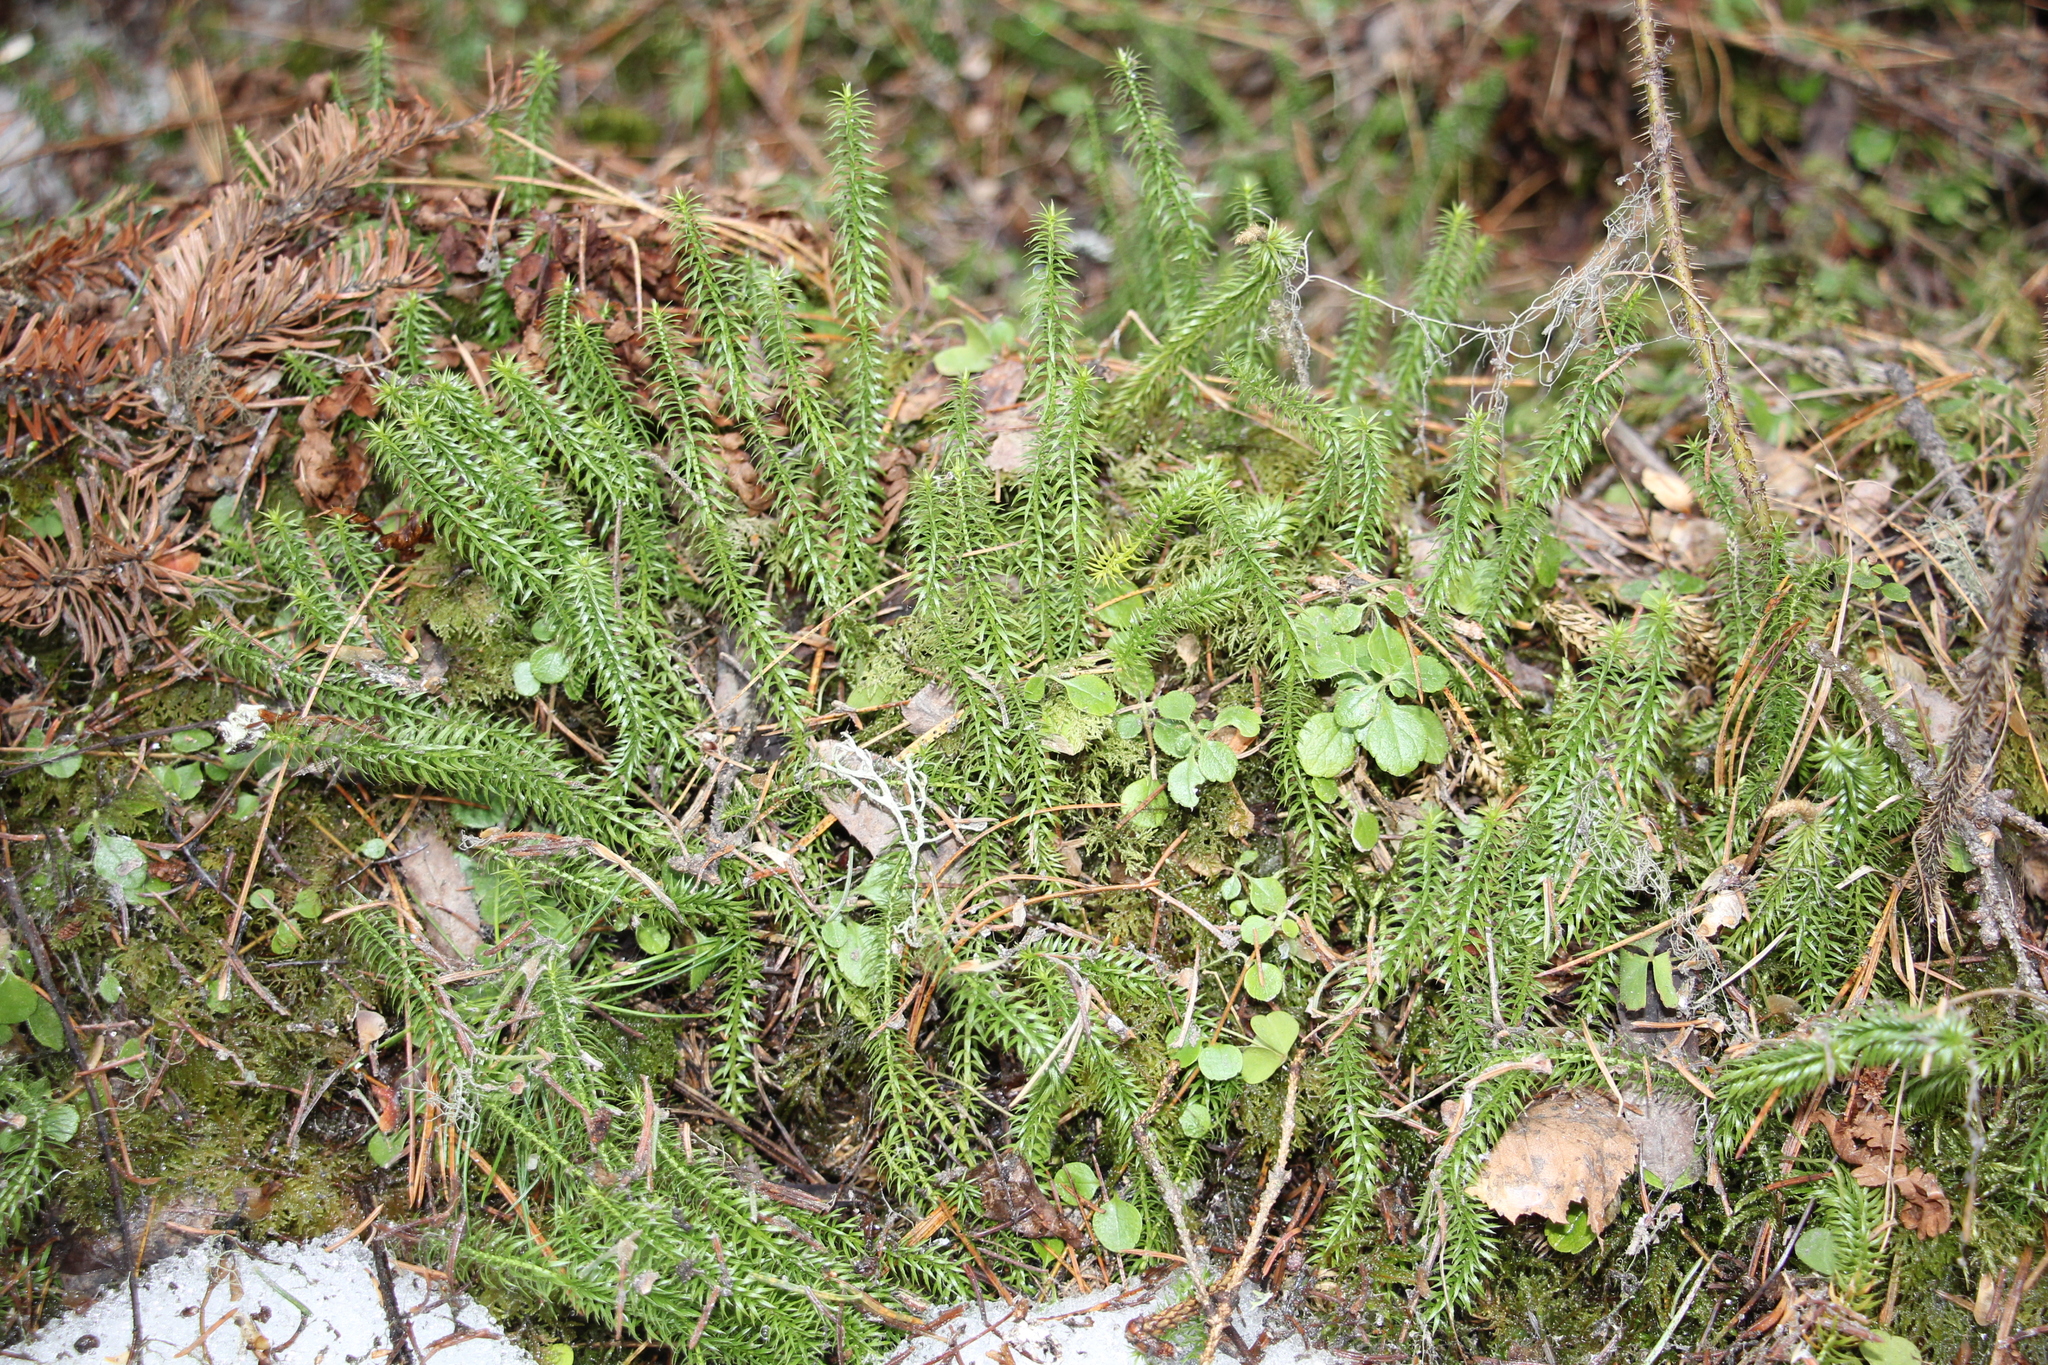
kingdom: Plantae
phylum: Tracheophyta
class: Lycopodiopsida
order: Lycopodiales
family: Lycopodiaceae
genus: Spinulum
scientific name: Spinulum annotinum
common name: Interrupted club-moss
